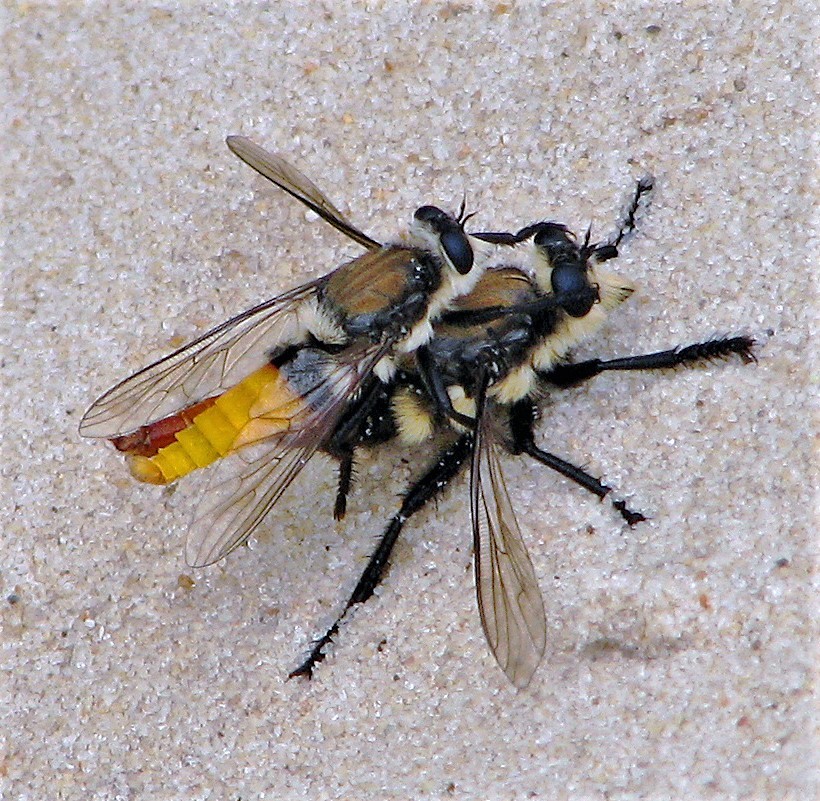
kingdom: Animalia
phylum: Arthropoda
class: Insecta
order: Diptera
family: Asilidae
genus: Eccritosia
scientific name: Eccritosia rubriventris
